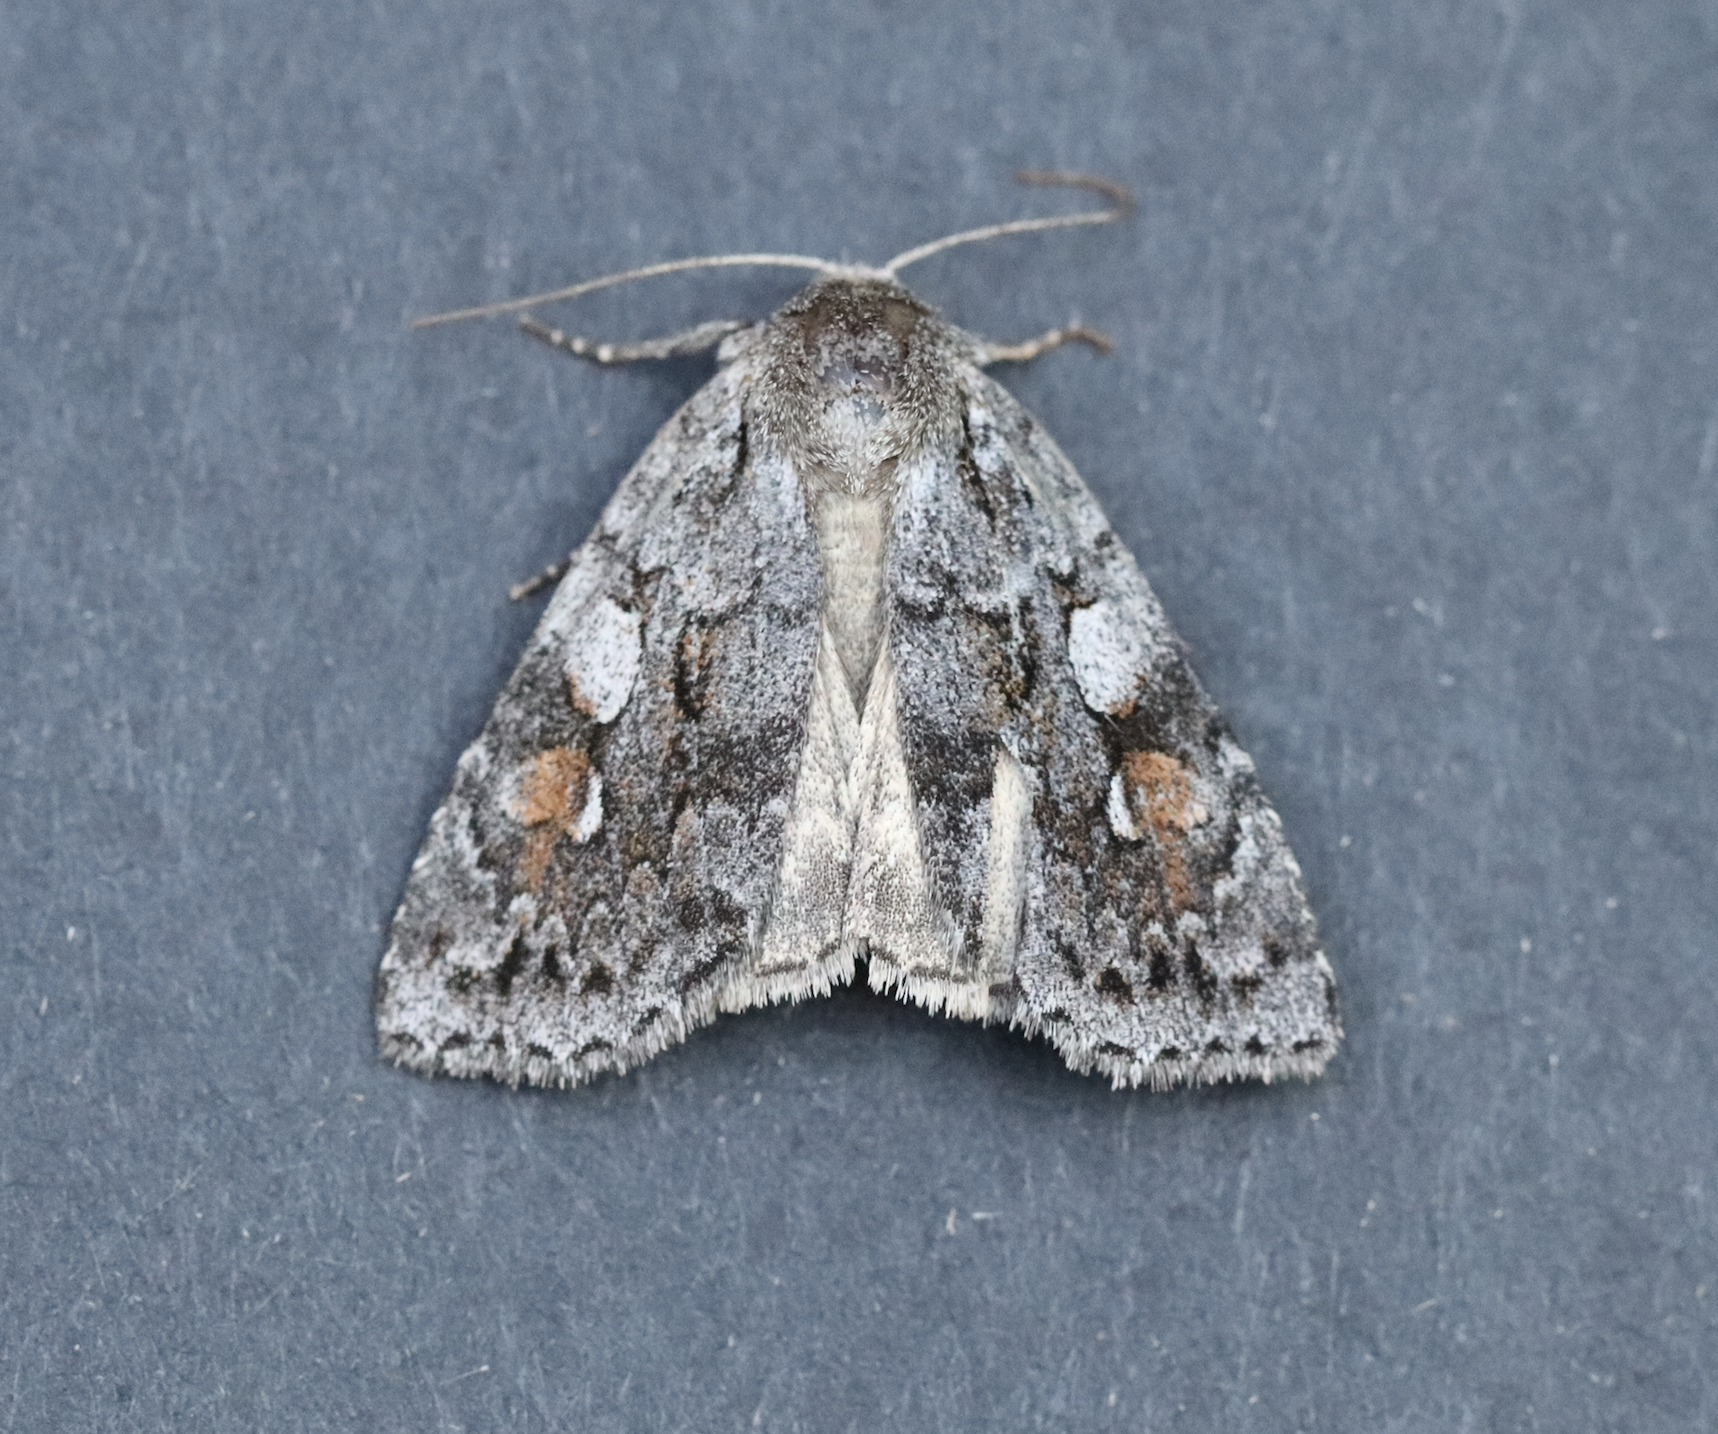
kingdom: Animalia
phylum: Arthropoda
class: Insecta
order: Lepidoptera
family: Noctuidae
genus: Xestia
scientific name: Xestia imperita
